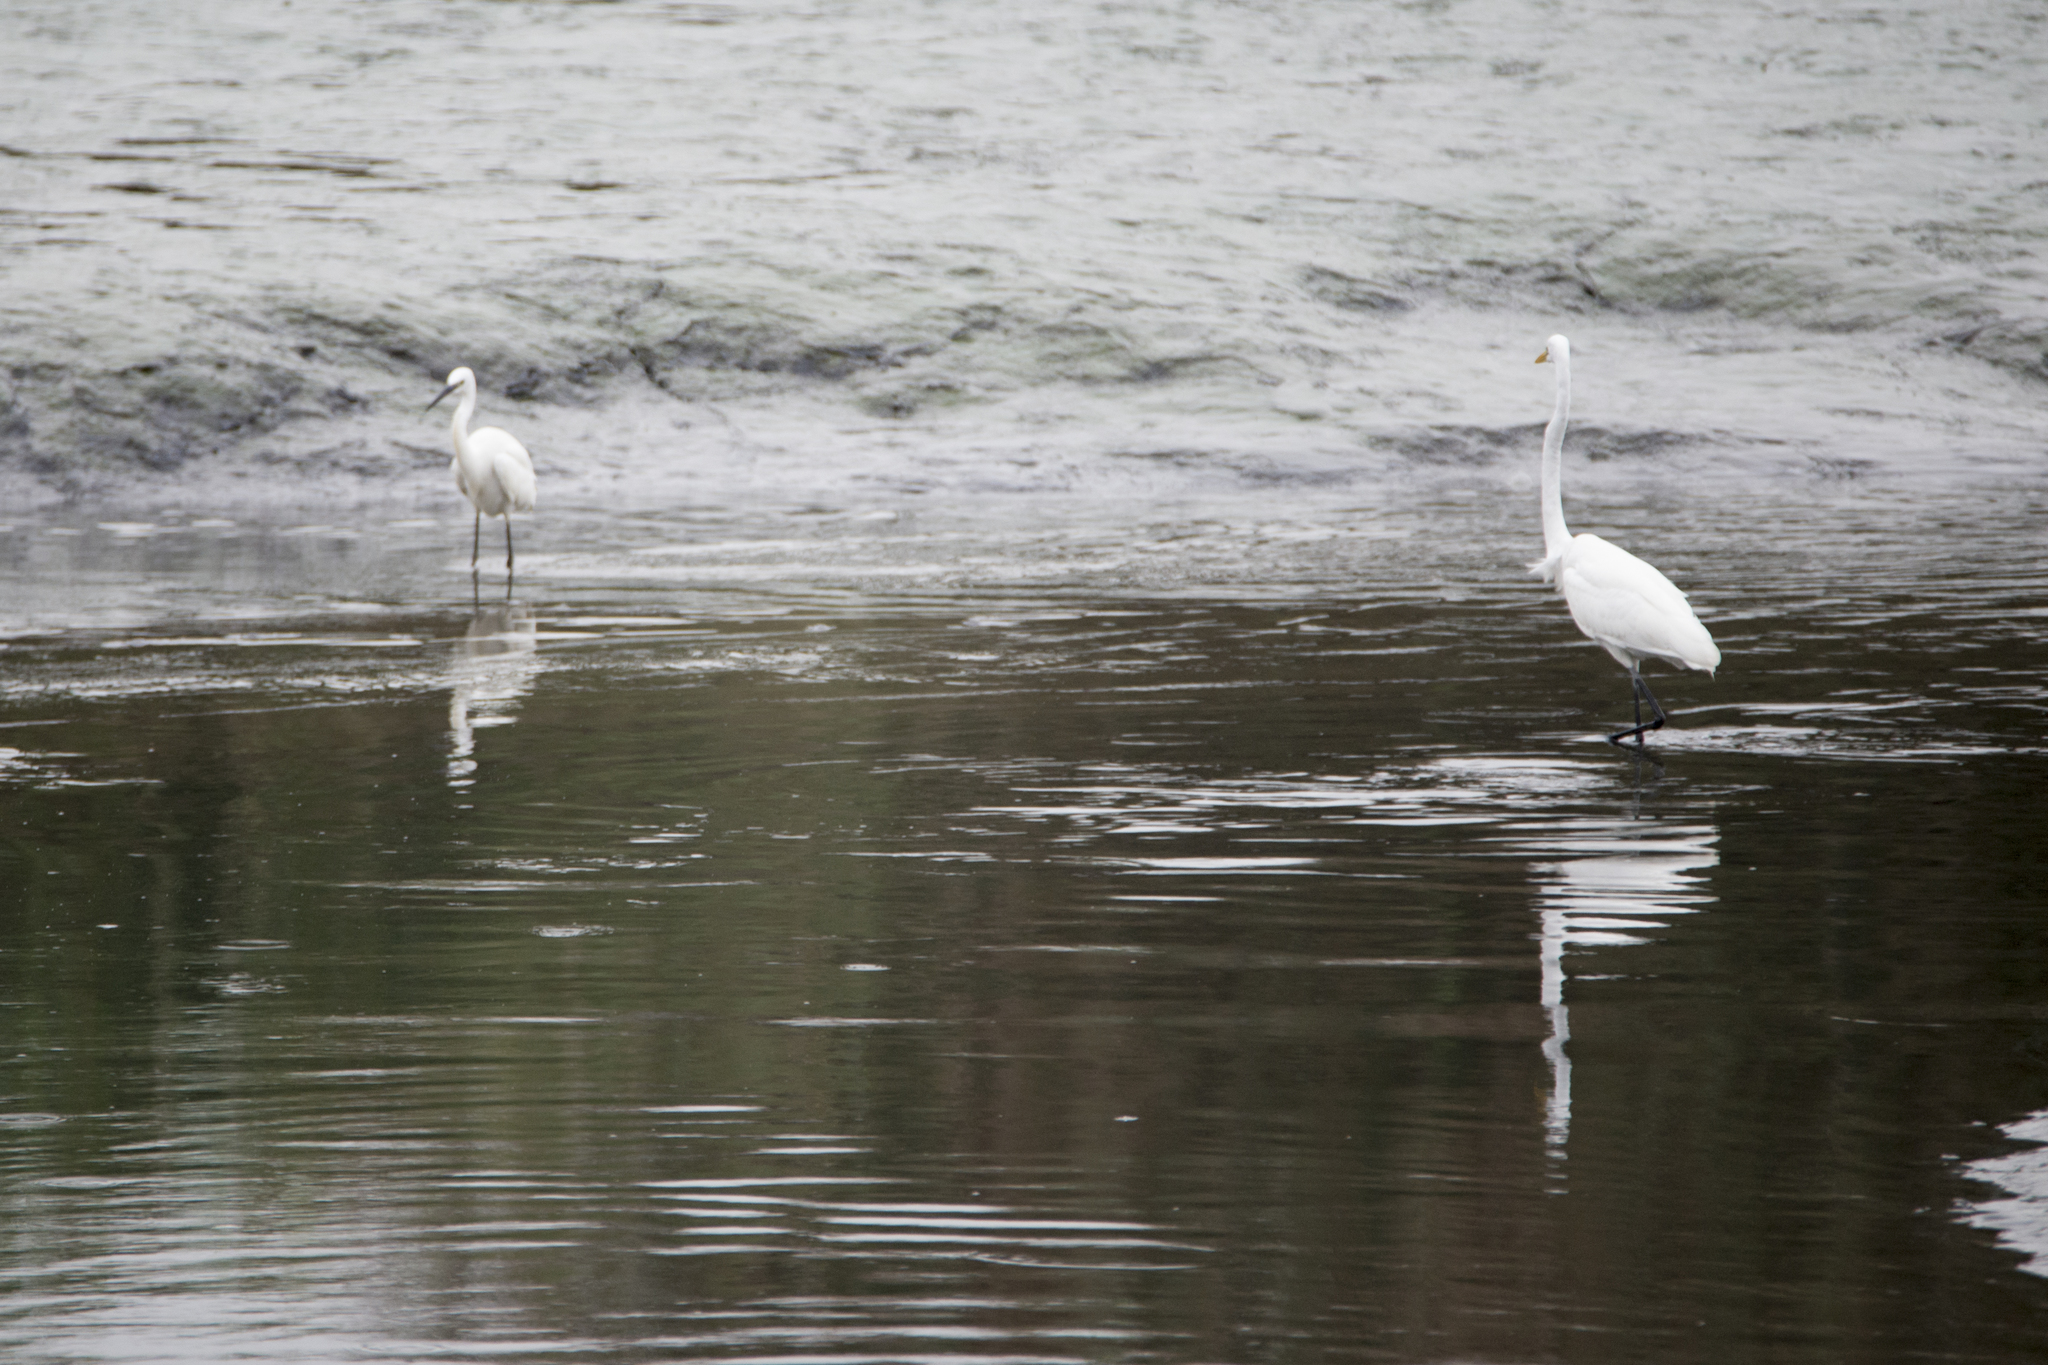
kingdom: Animalia
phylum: Chordata
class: Aves
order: Pelecaniformes
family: Ardeidae
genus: Ardea
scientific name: Ardea modesta
